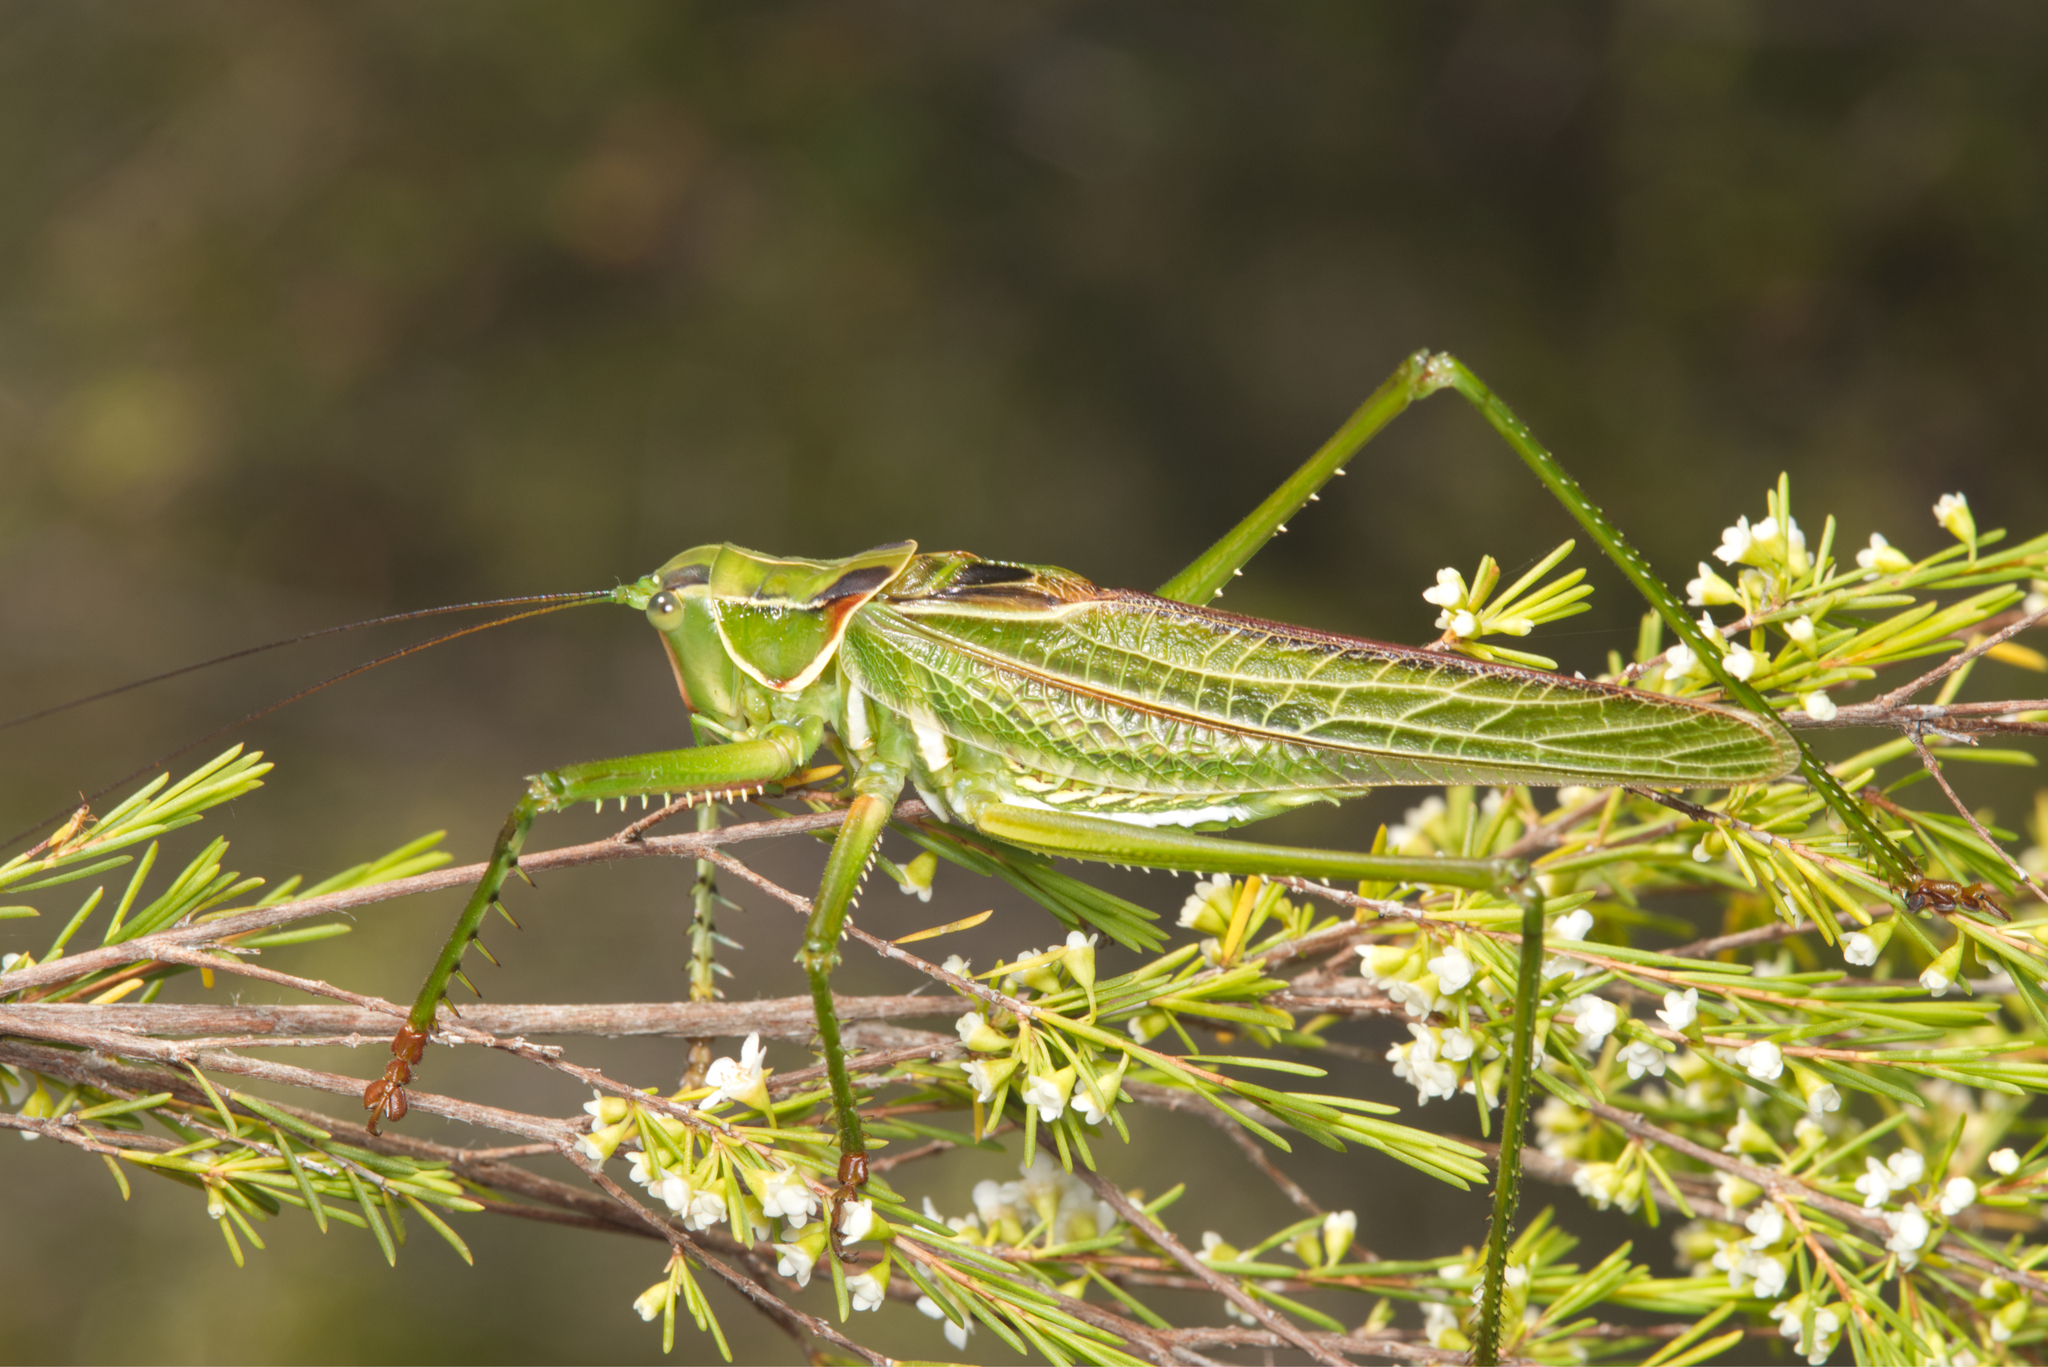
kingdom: Animalia
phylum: Arthropoda
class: Insecta
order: Orthoptera
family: Tettigoniidae
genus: Terpandrus
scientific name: Terpandrus burragah
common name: Beautiful gumleaf katydid
